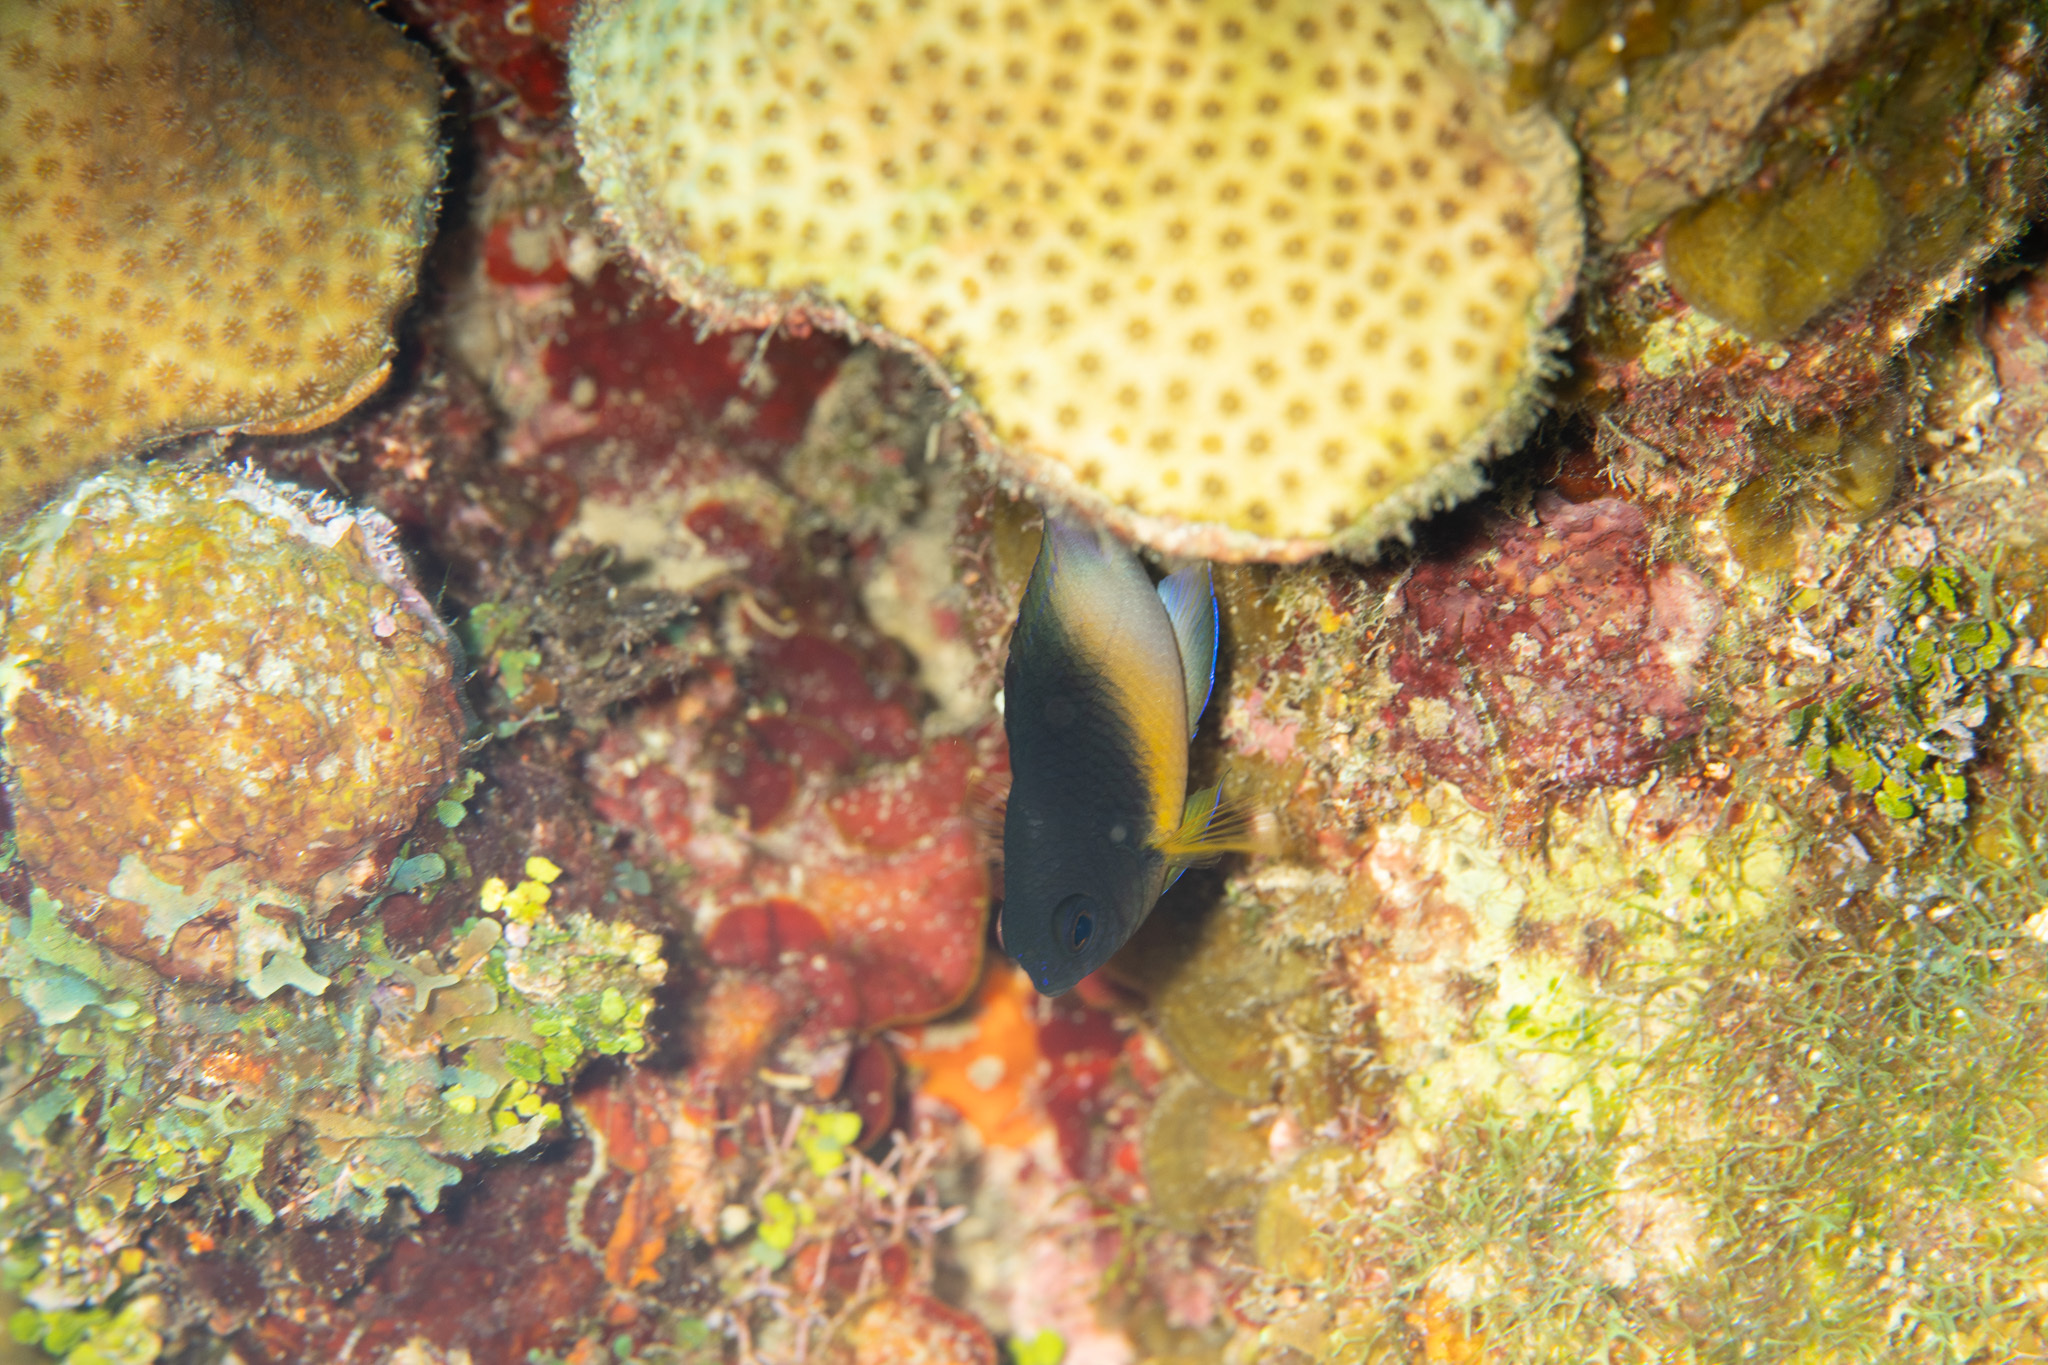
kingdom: Animalia
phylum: Chordata
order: Perciformes
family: Pomacentridae
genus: Stegastes
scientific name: Stegastes partitus
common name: Bicolor damselfish
